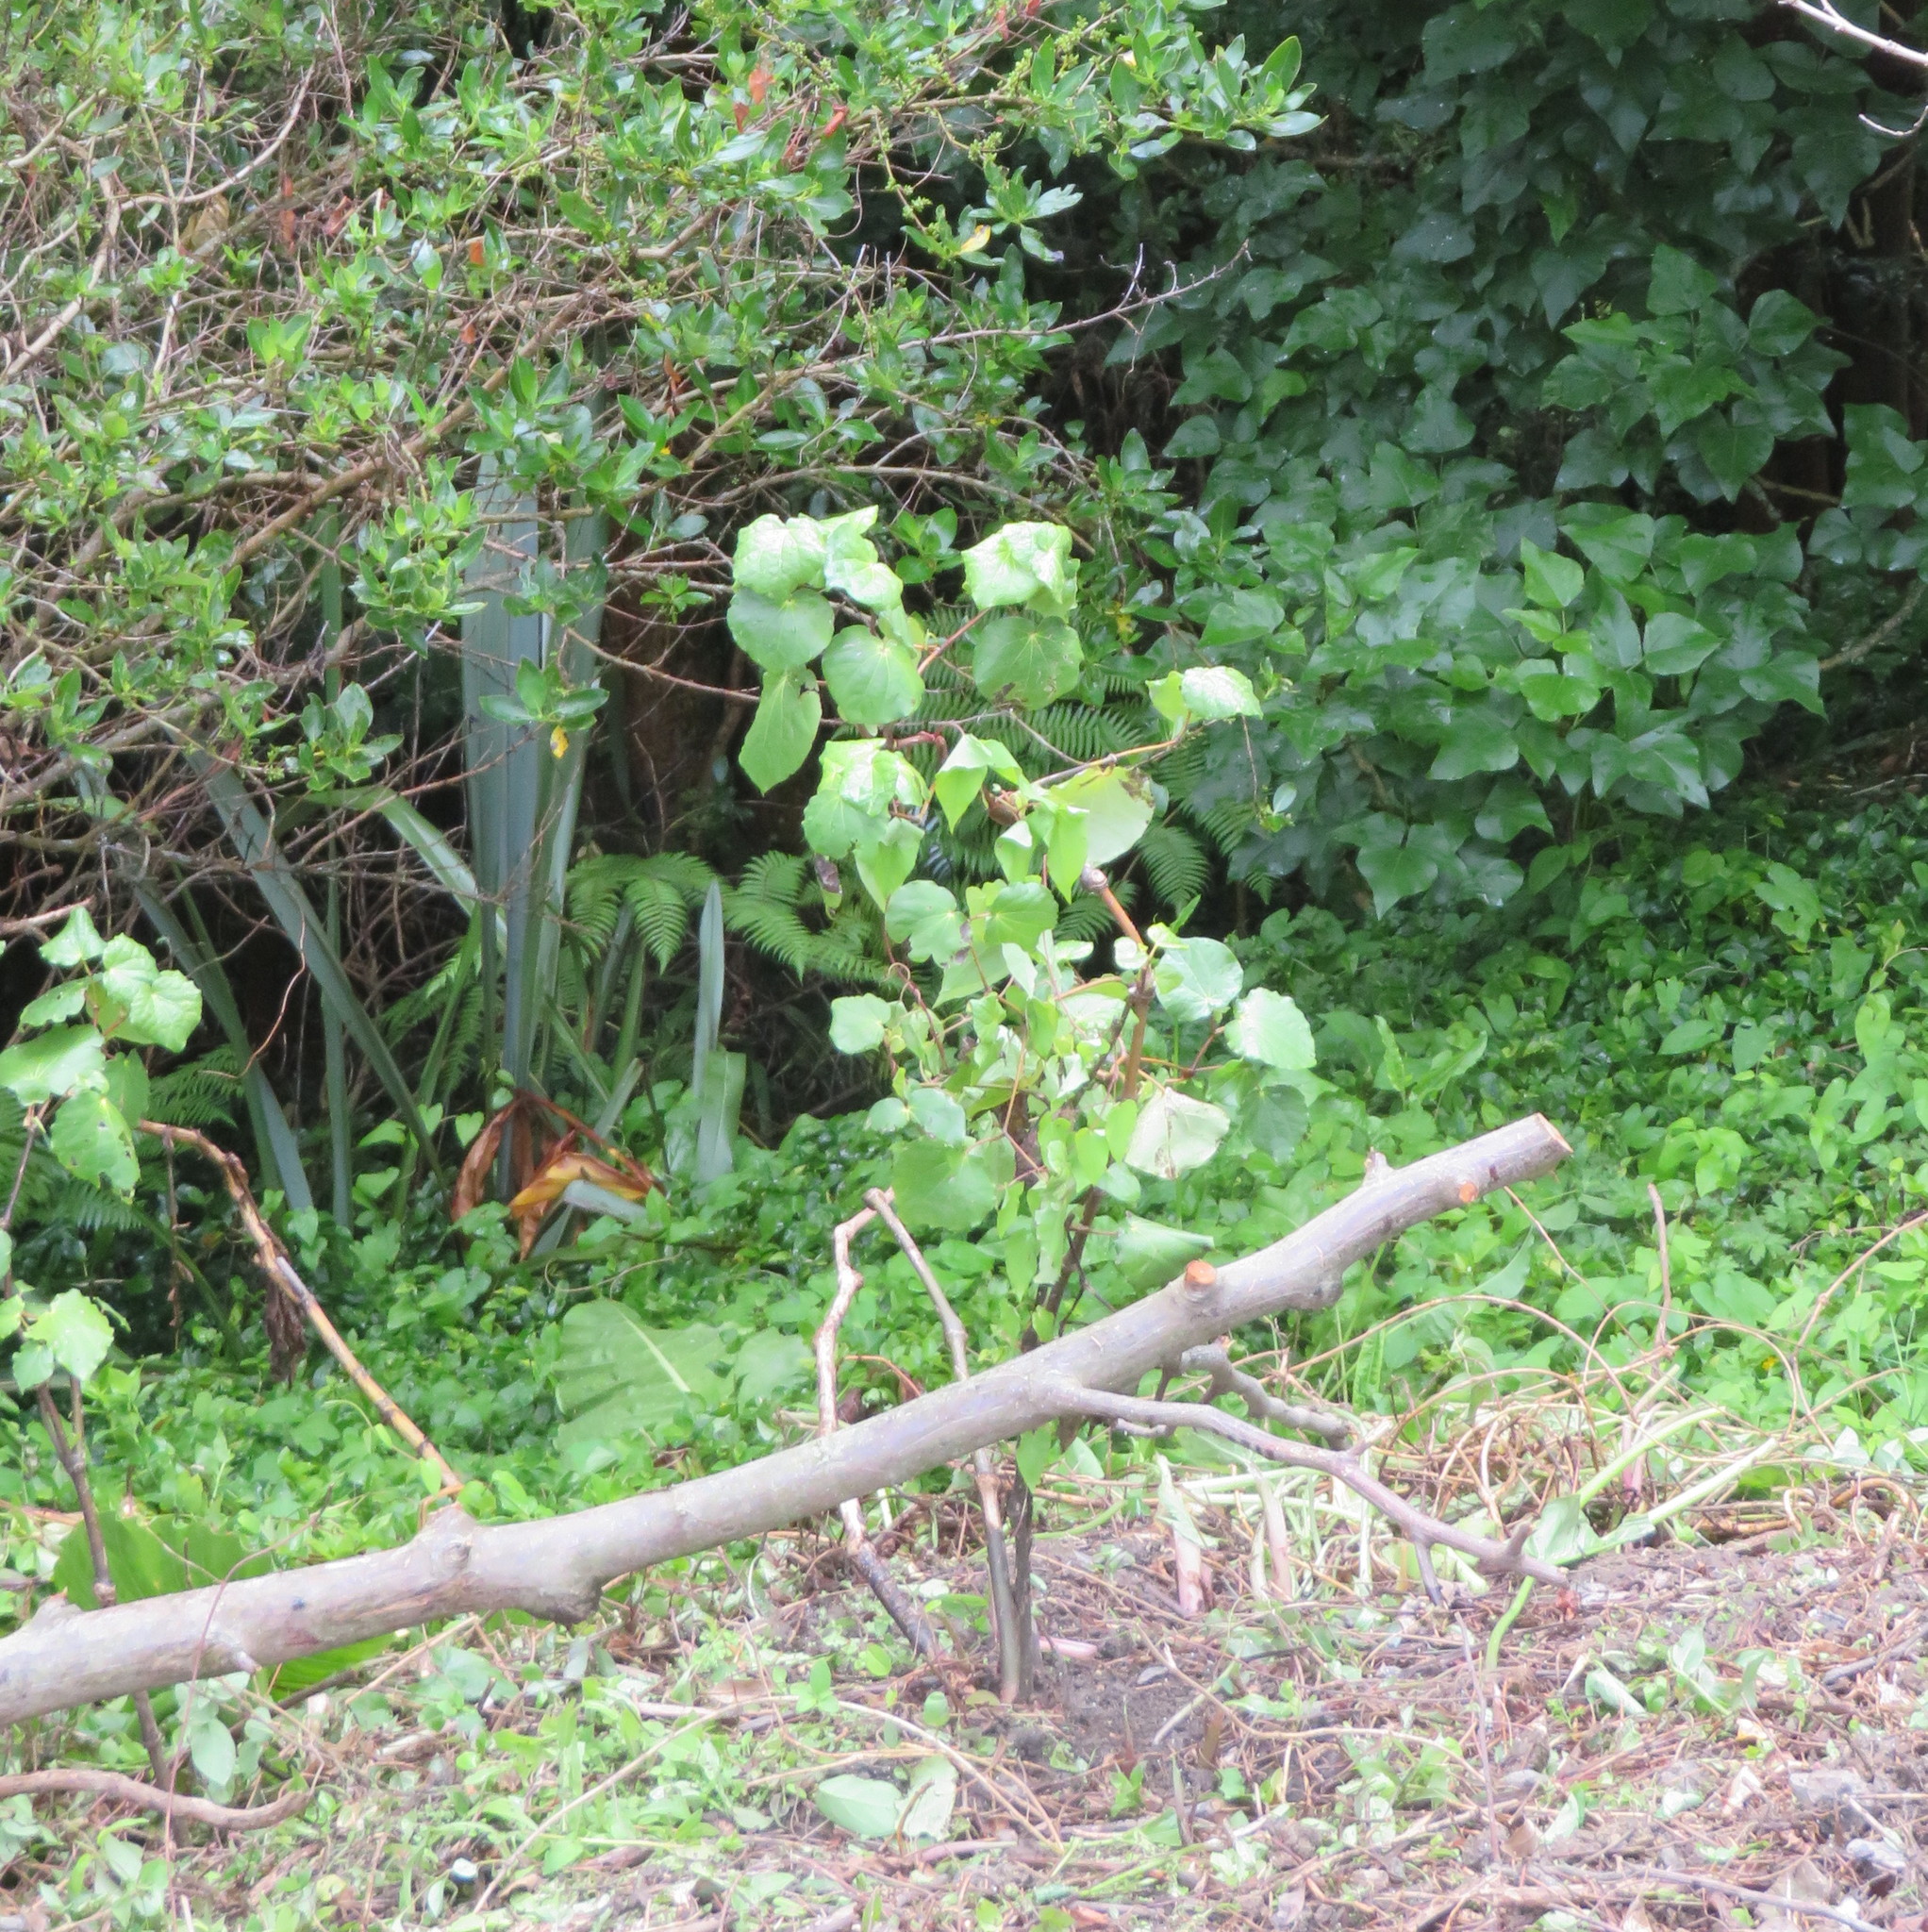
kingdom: Plantae
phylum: Tracheophyta
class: Magnoliopsida
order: Piperales
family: Piperaceae
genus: Macropiper
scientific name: Macropiper excelsum
